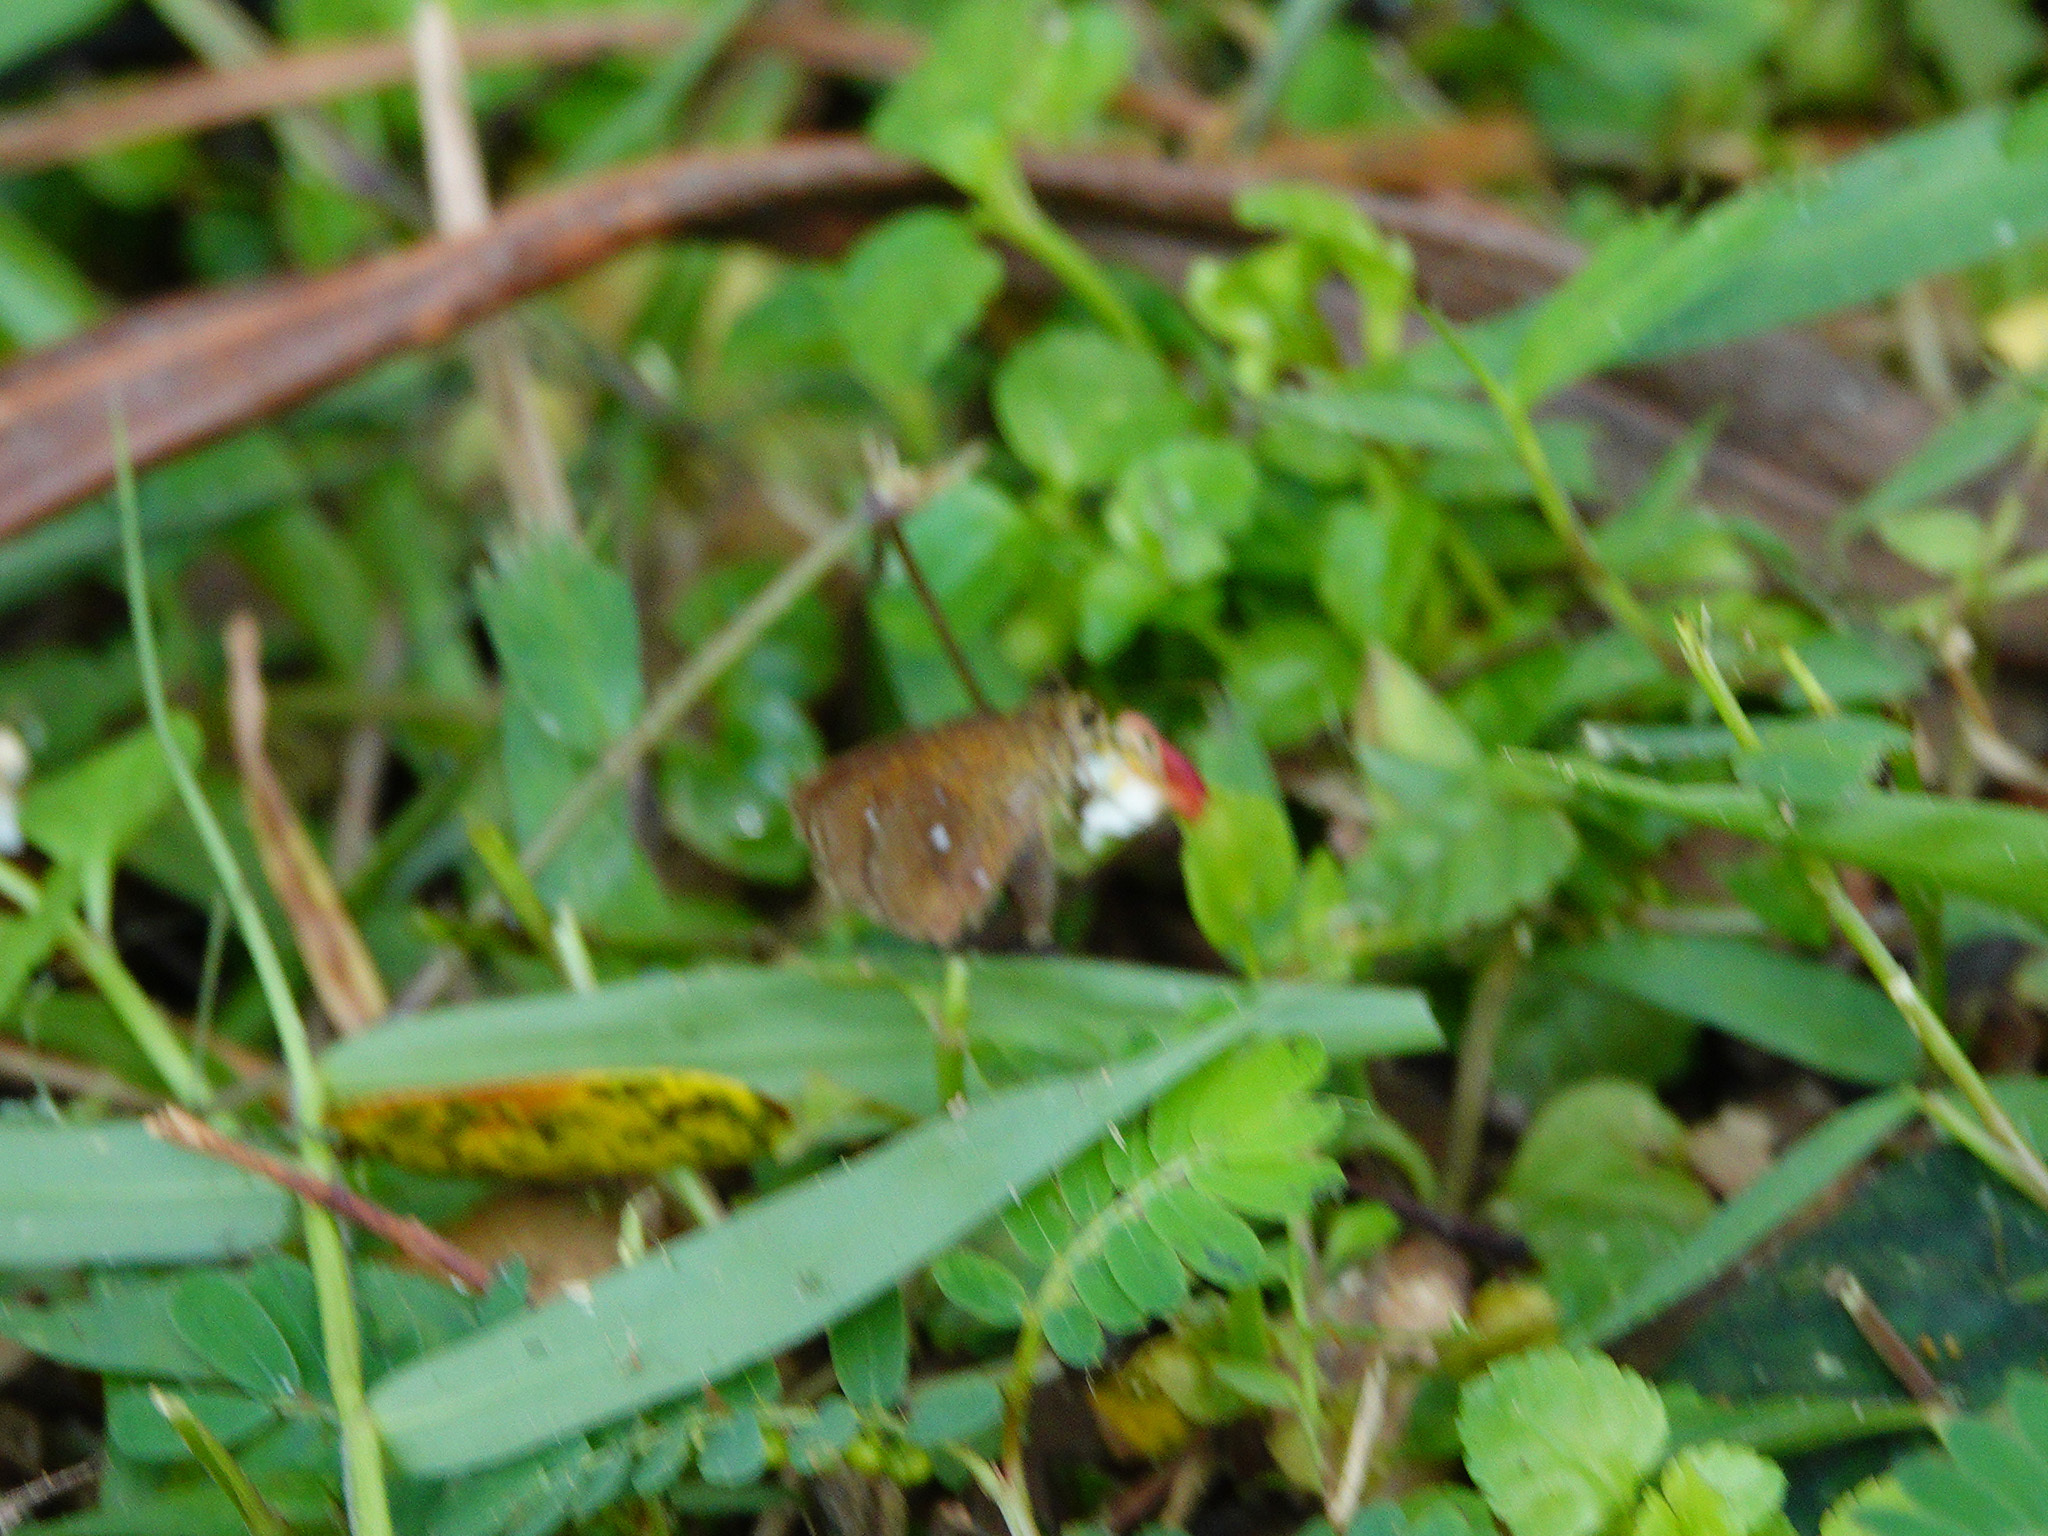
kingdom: Animalia
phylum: Arthropoda
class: Insecta
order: Lepidoptera
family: Hesperiidae
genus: Iambrix
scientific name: Iambrix salsala
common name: Chestnut bob
